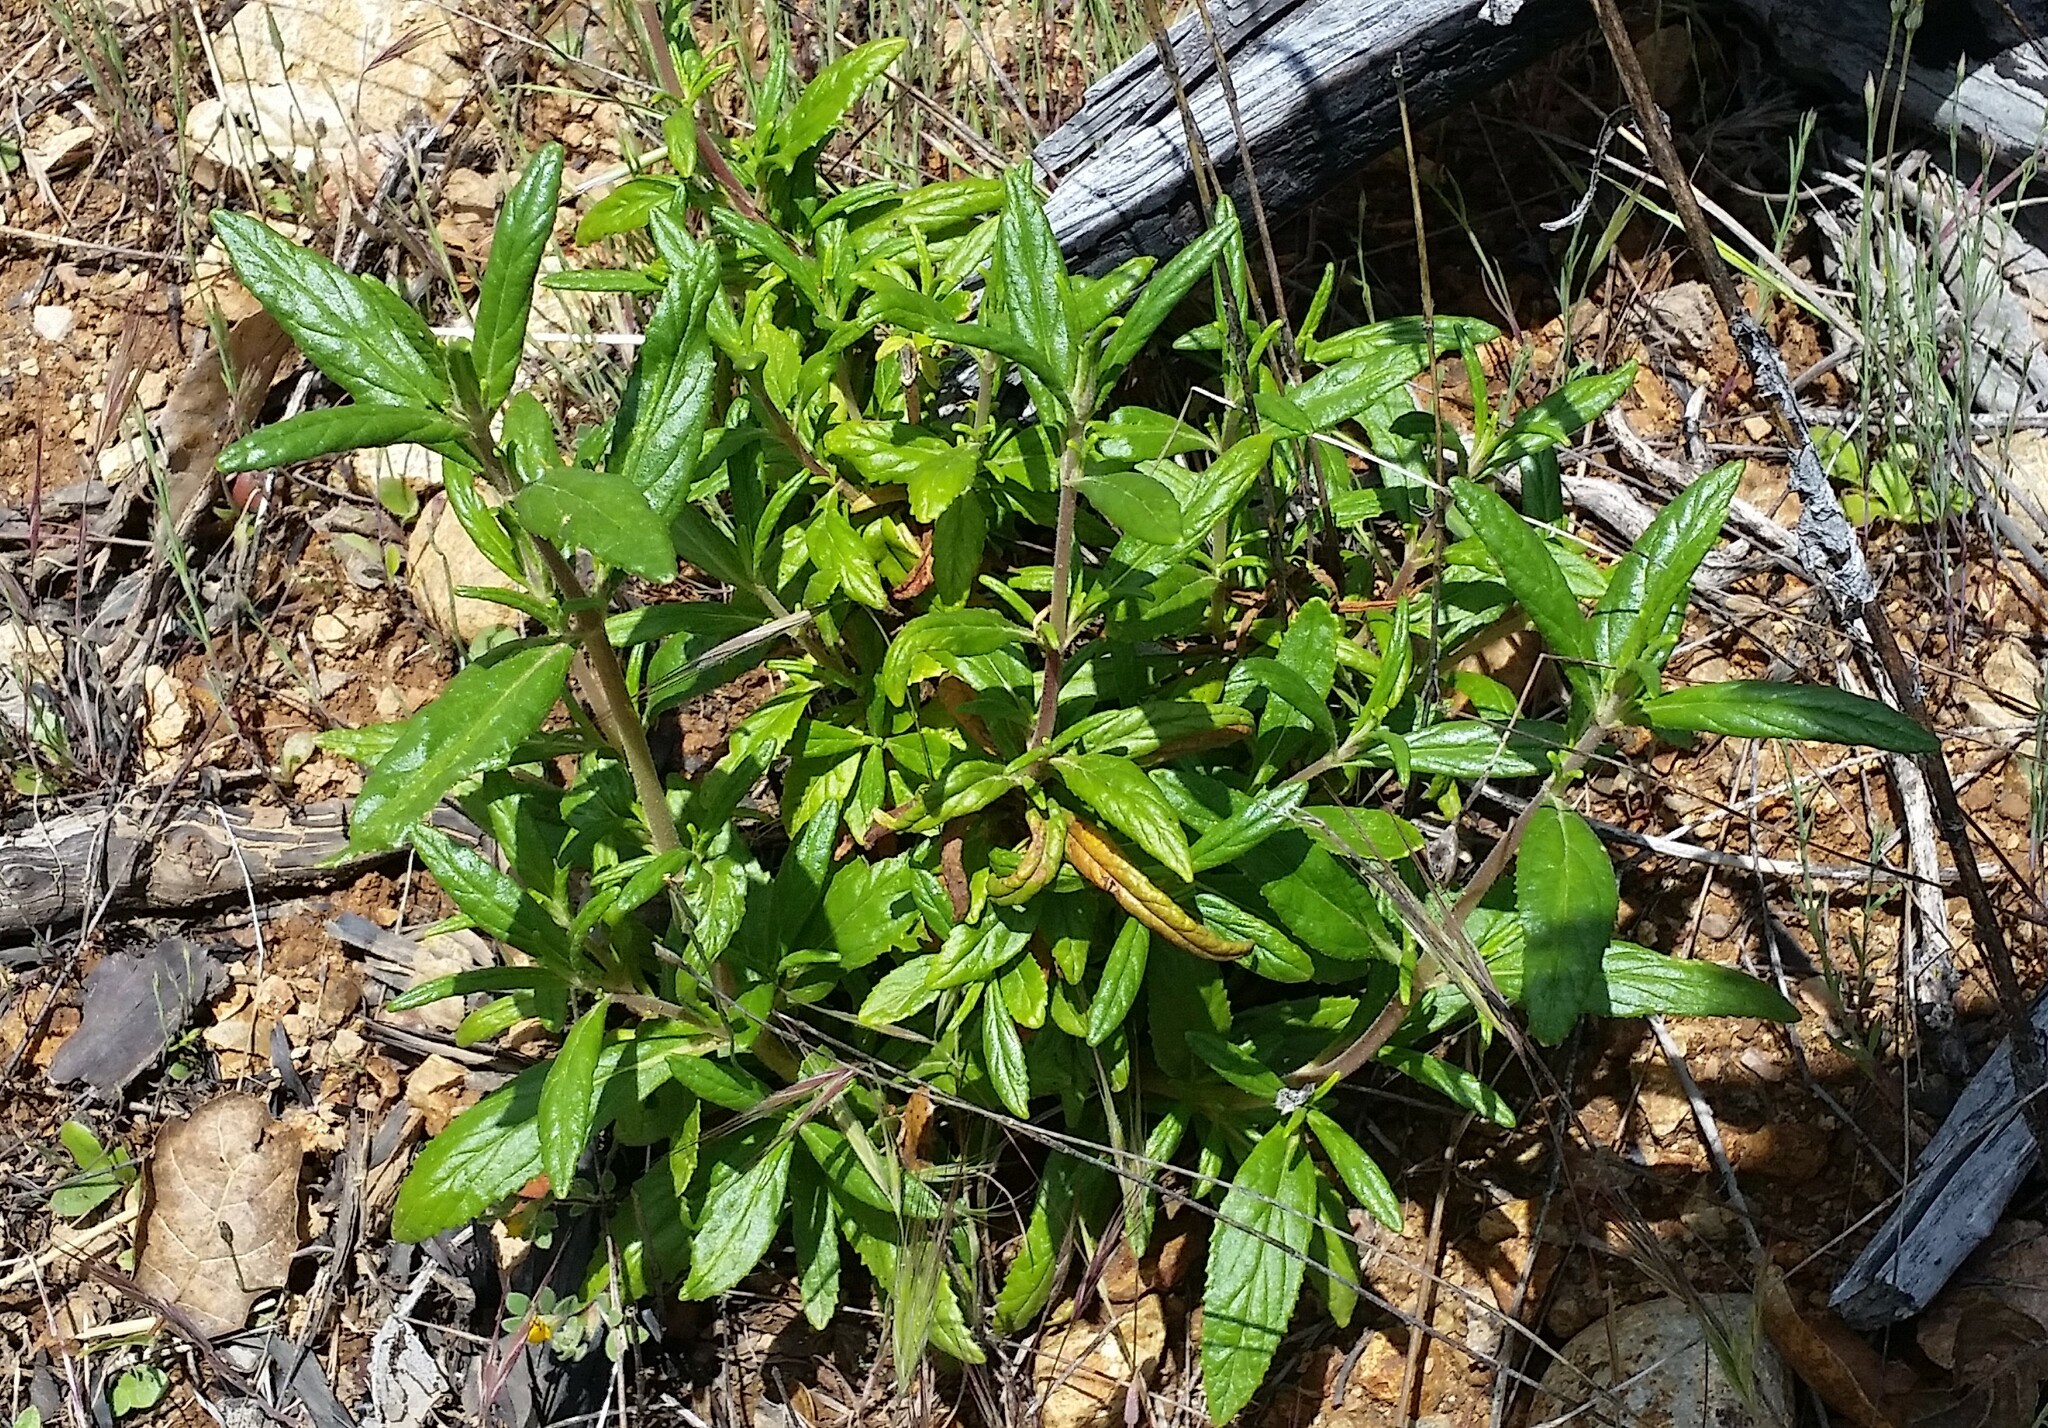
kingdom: Plantae
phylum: Tracheophyta
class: Magnoliopsida
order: Lamiales
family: Phrymaceae
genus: Diplacus
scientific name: Diplacus aurantiacus
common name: Bush monkey-flower
